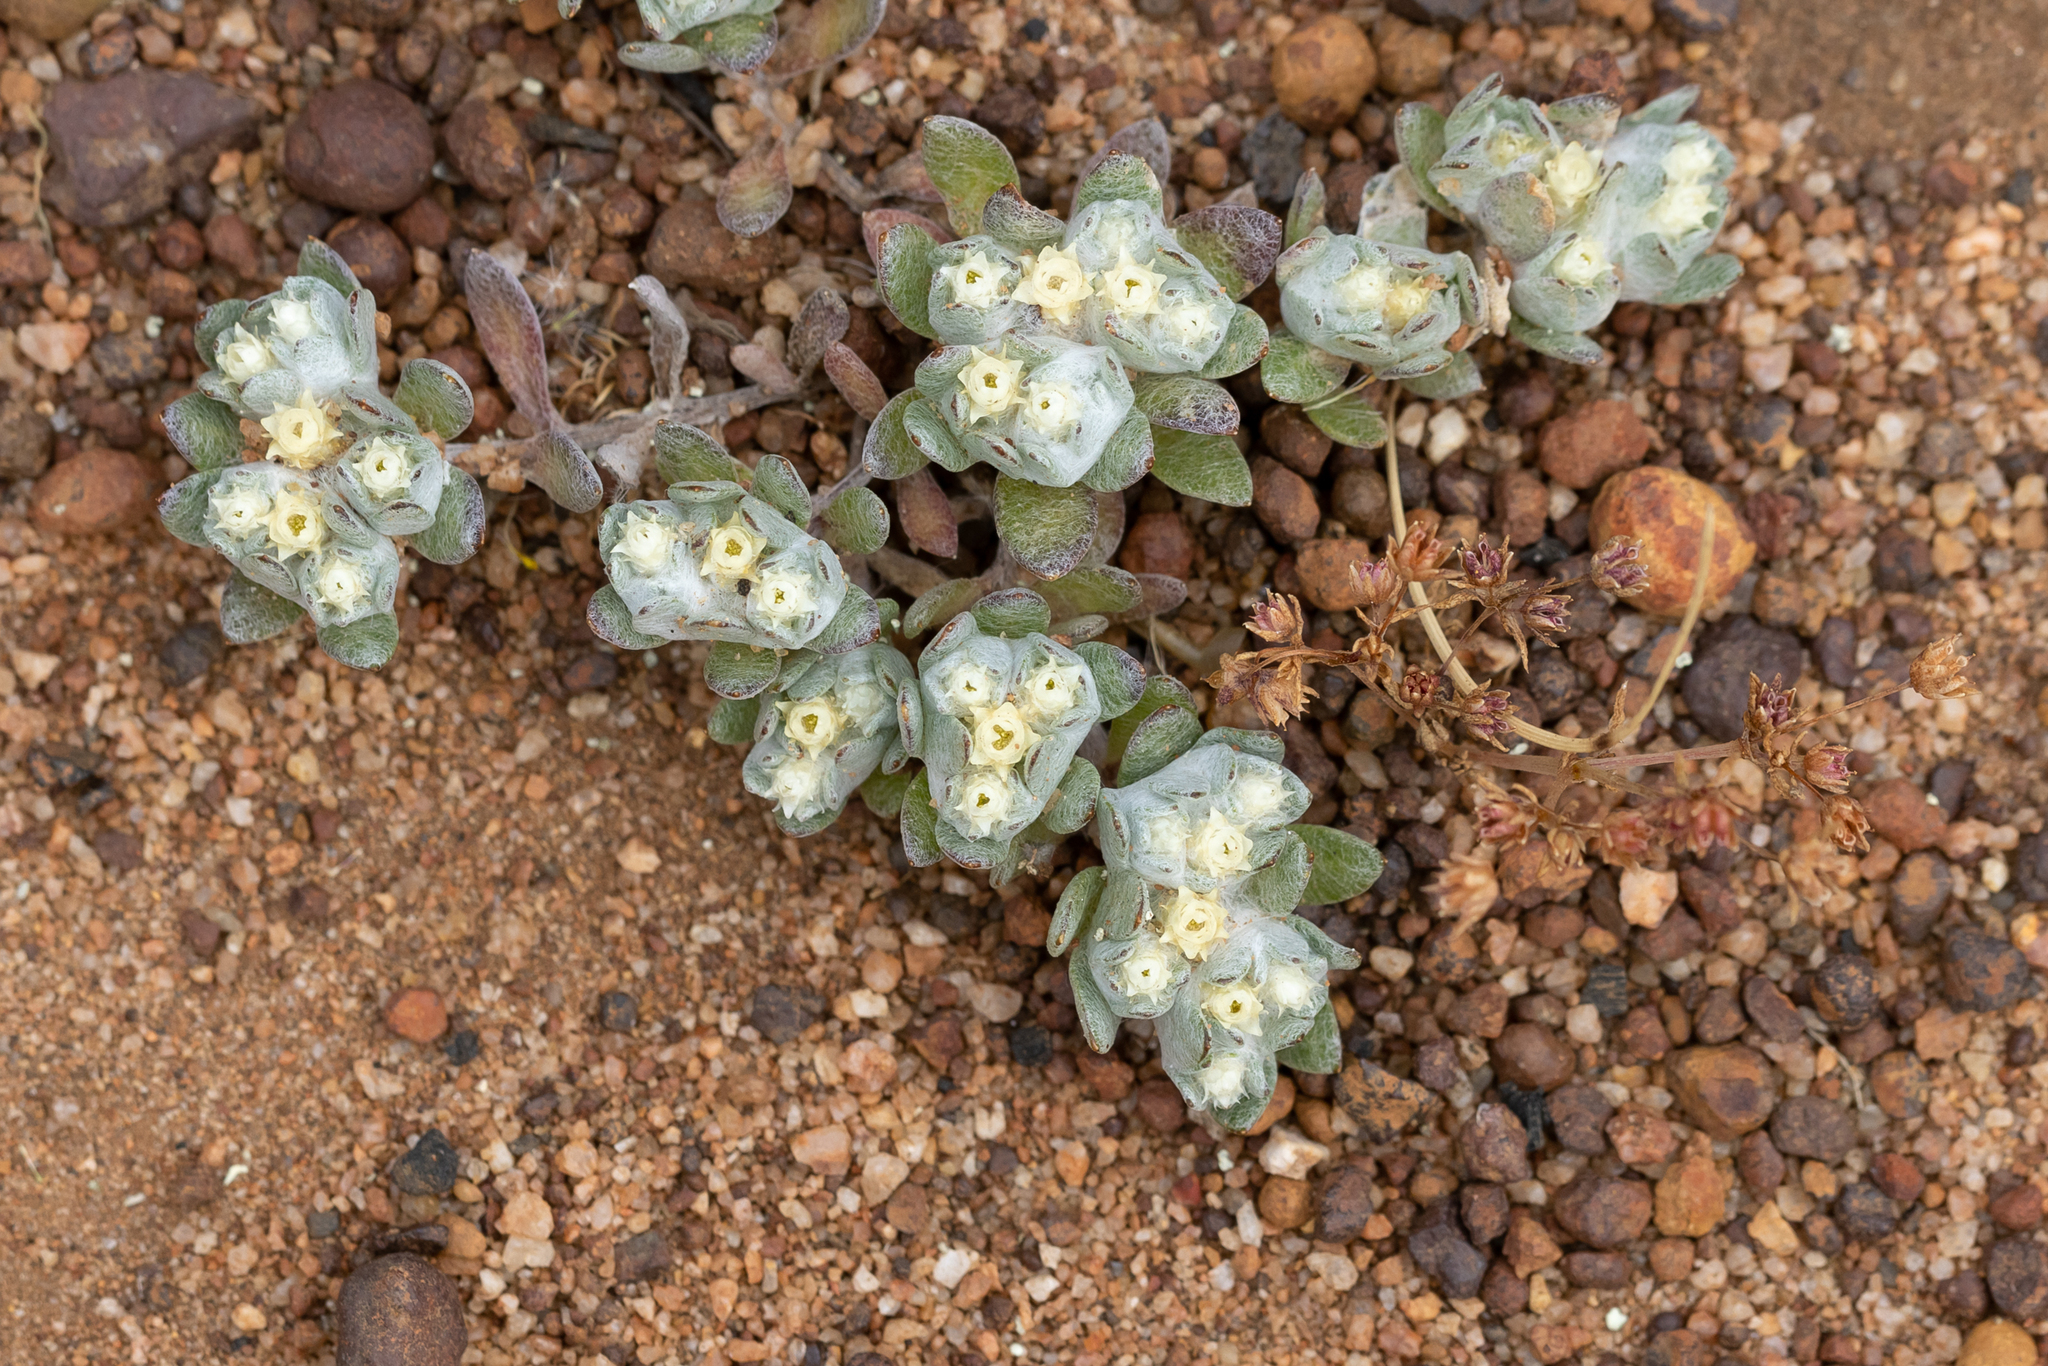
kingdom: Plantae
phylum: Tracheophyta
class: Magnoliopsida
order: Asterales
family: Asteraceae
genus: Actinobole
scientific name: Actinobole uliginosum
